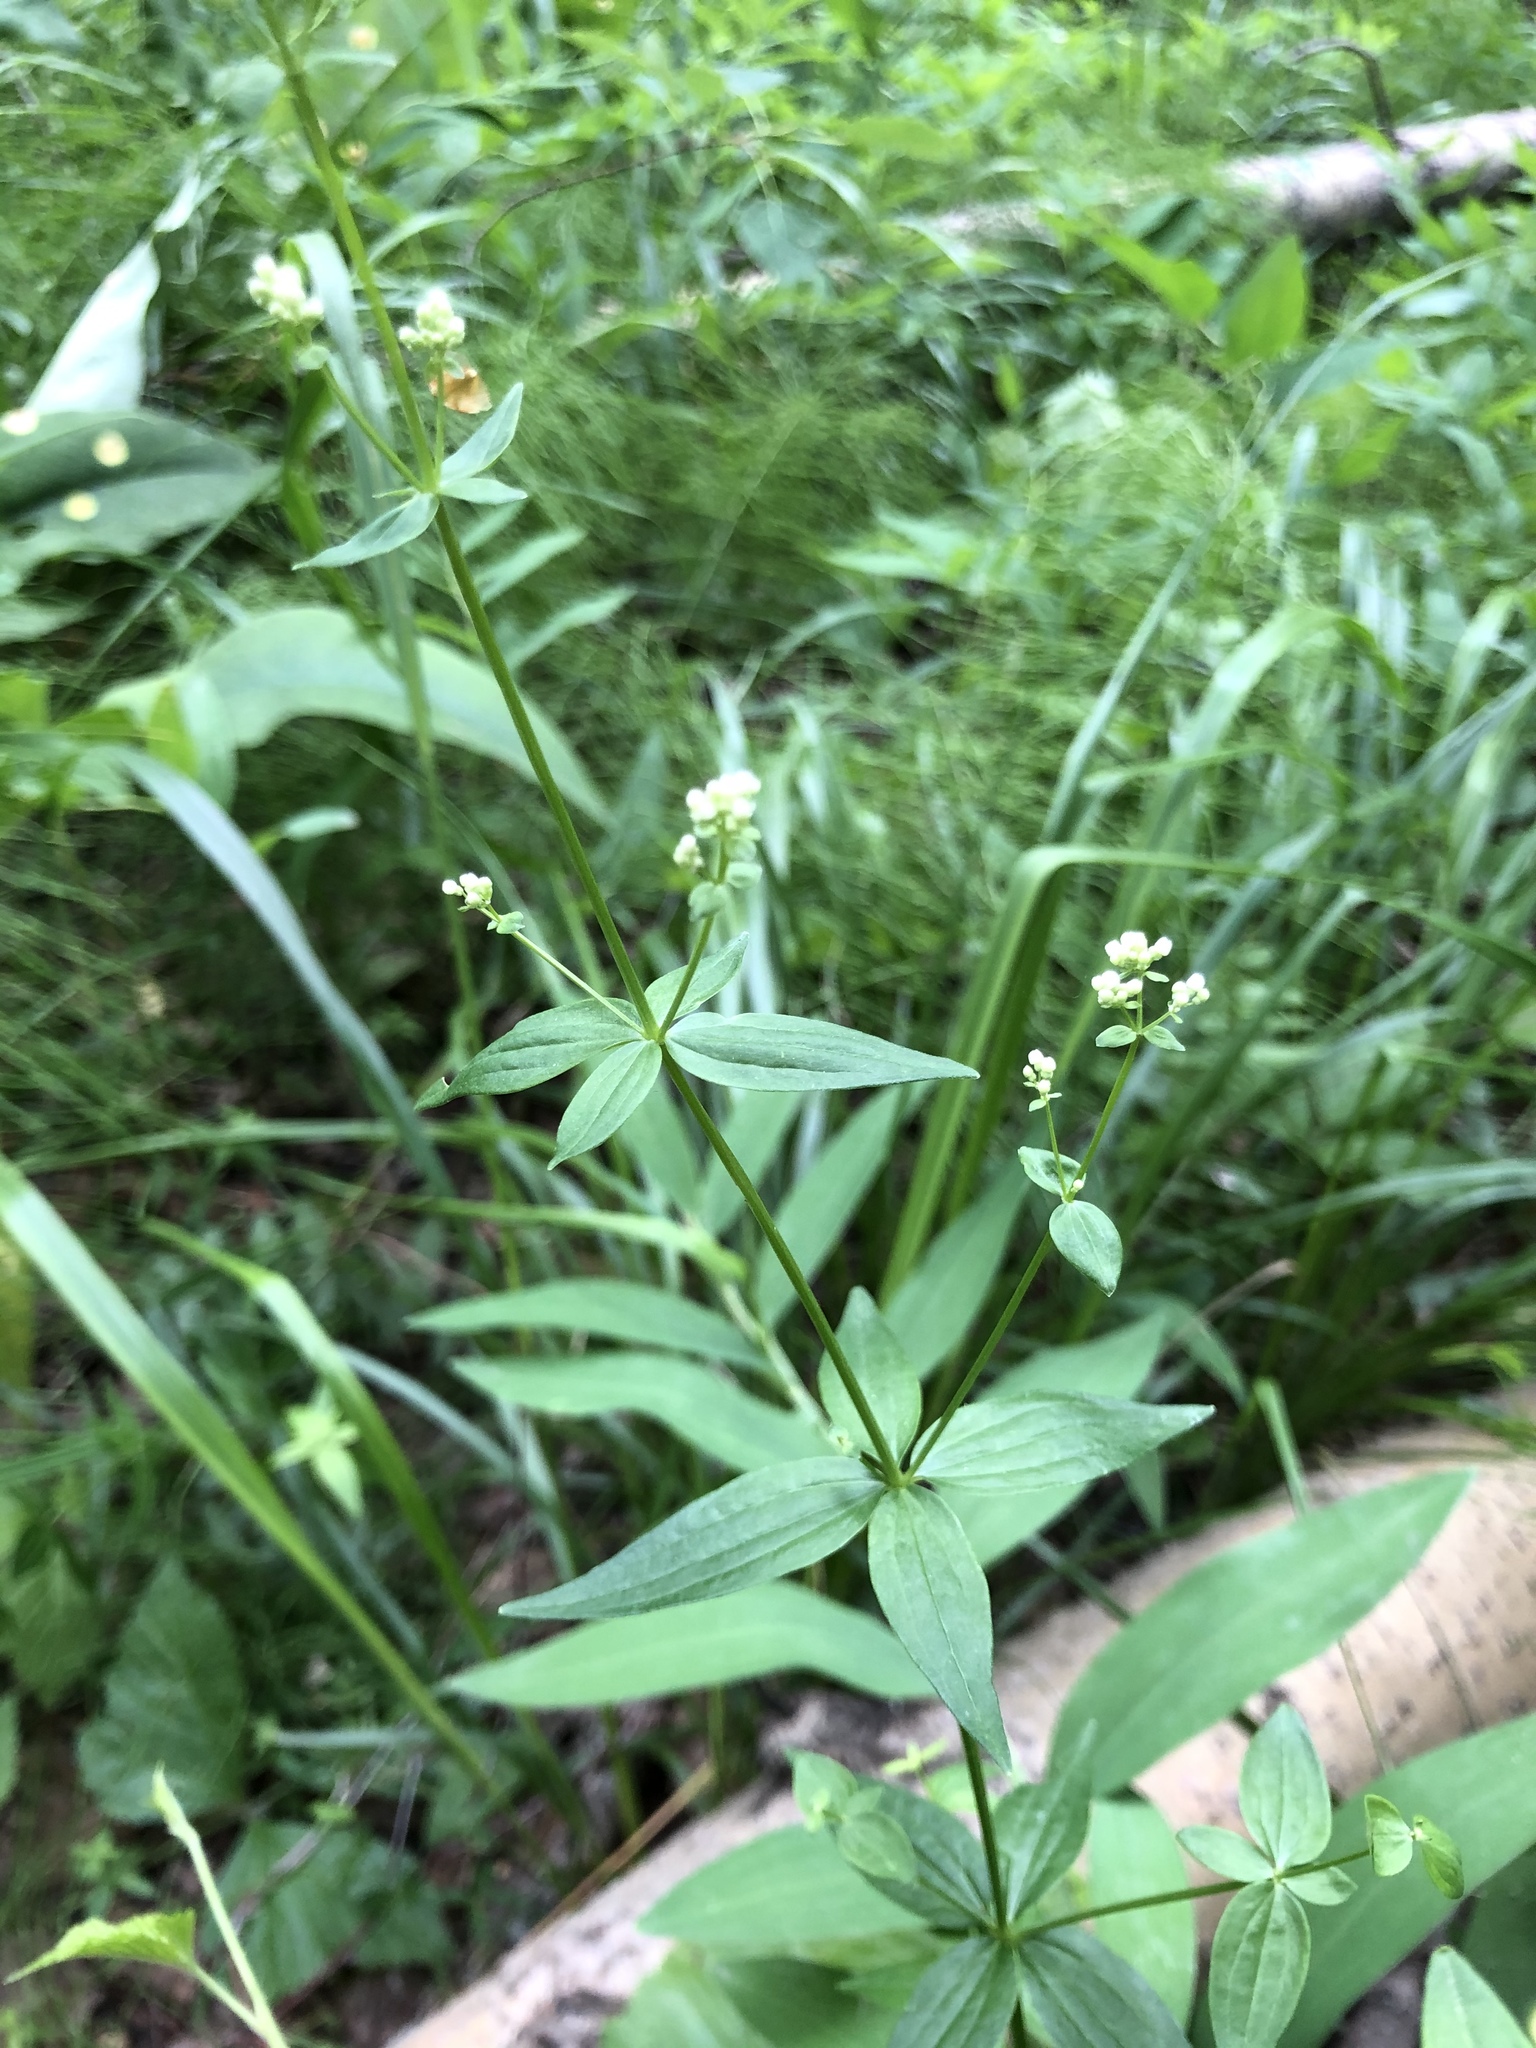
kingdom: Plantae
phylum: Tracheophyta
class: Magnoliopsida
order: Gentianales
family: Rubiaceae
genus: Galium
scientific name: Galium pseudoboreale
